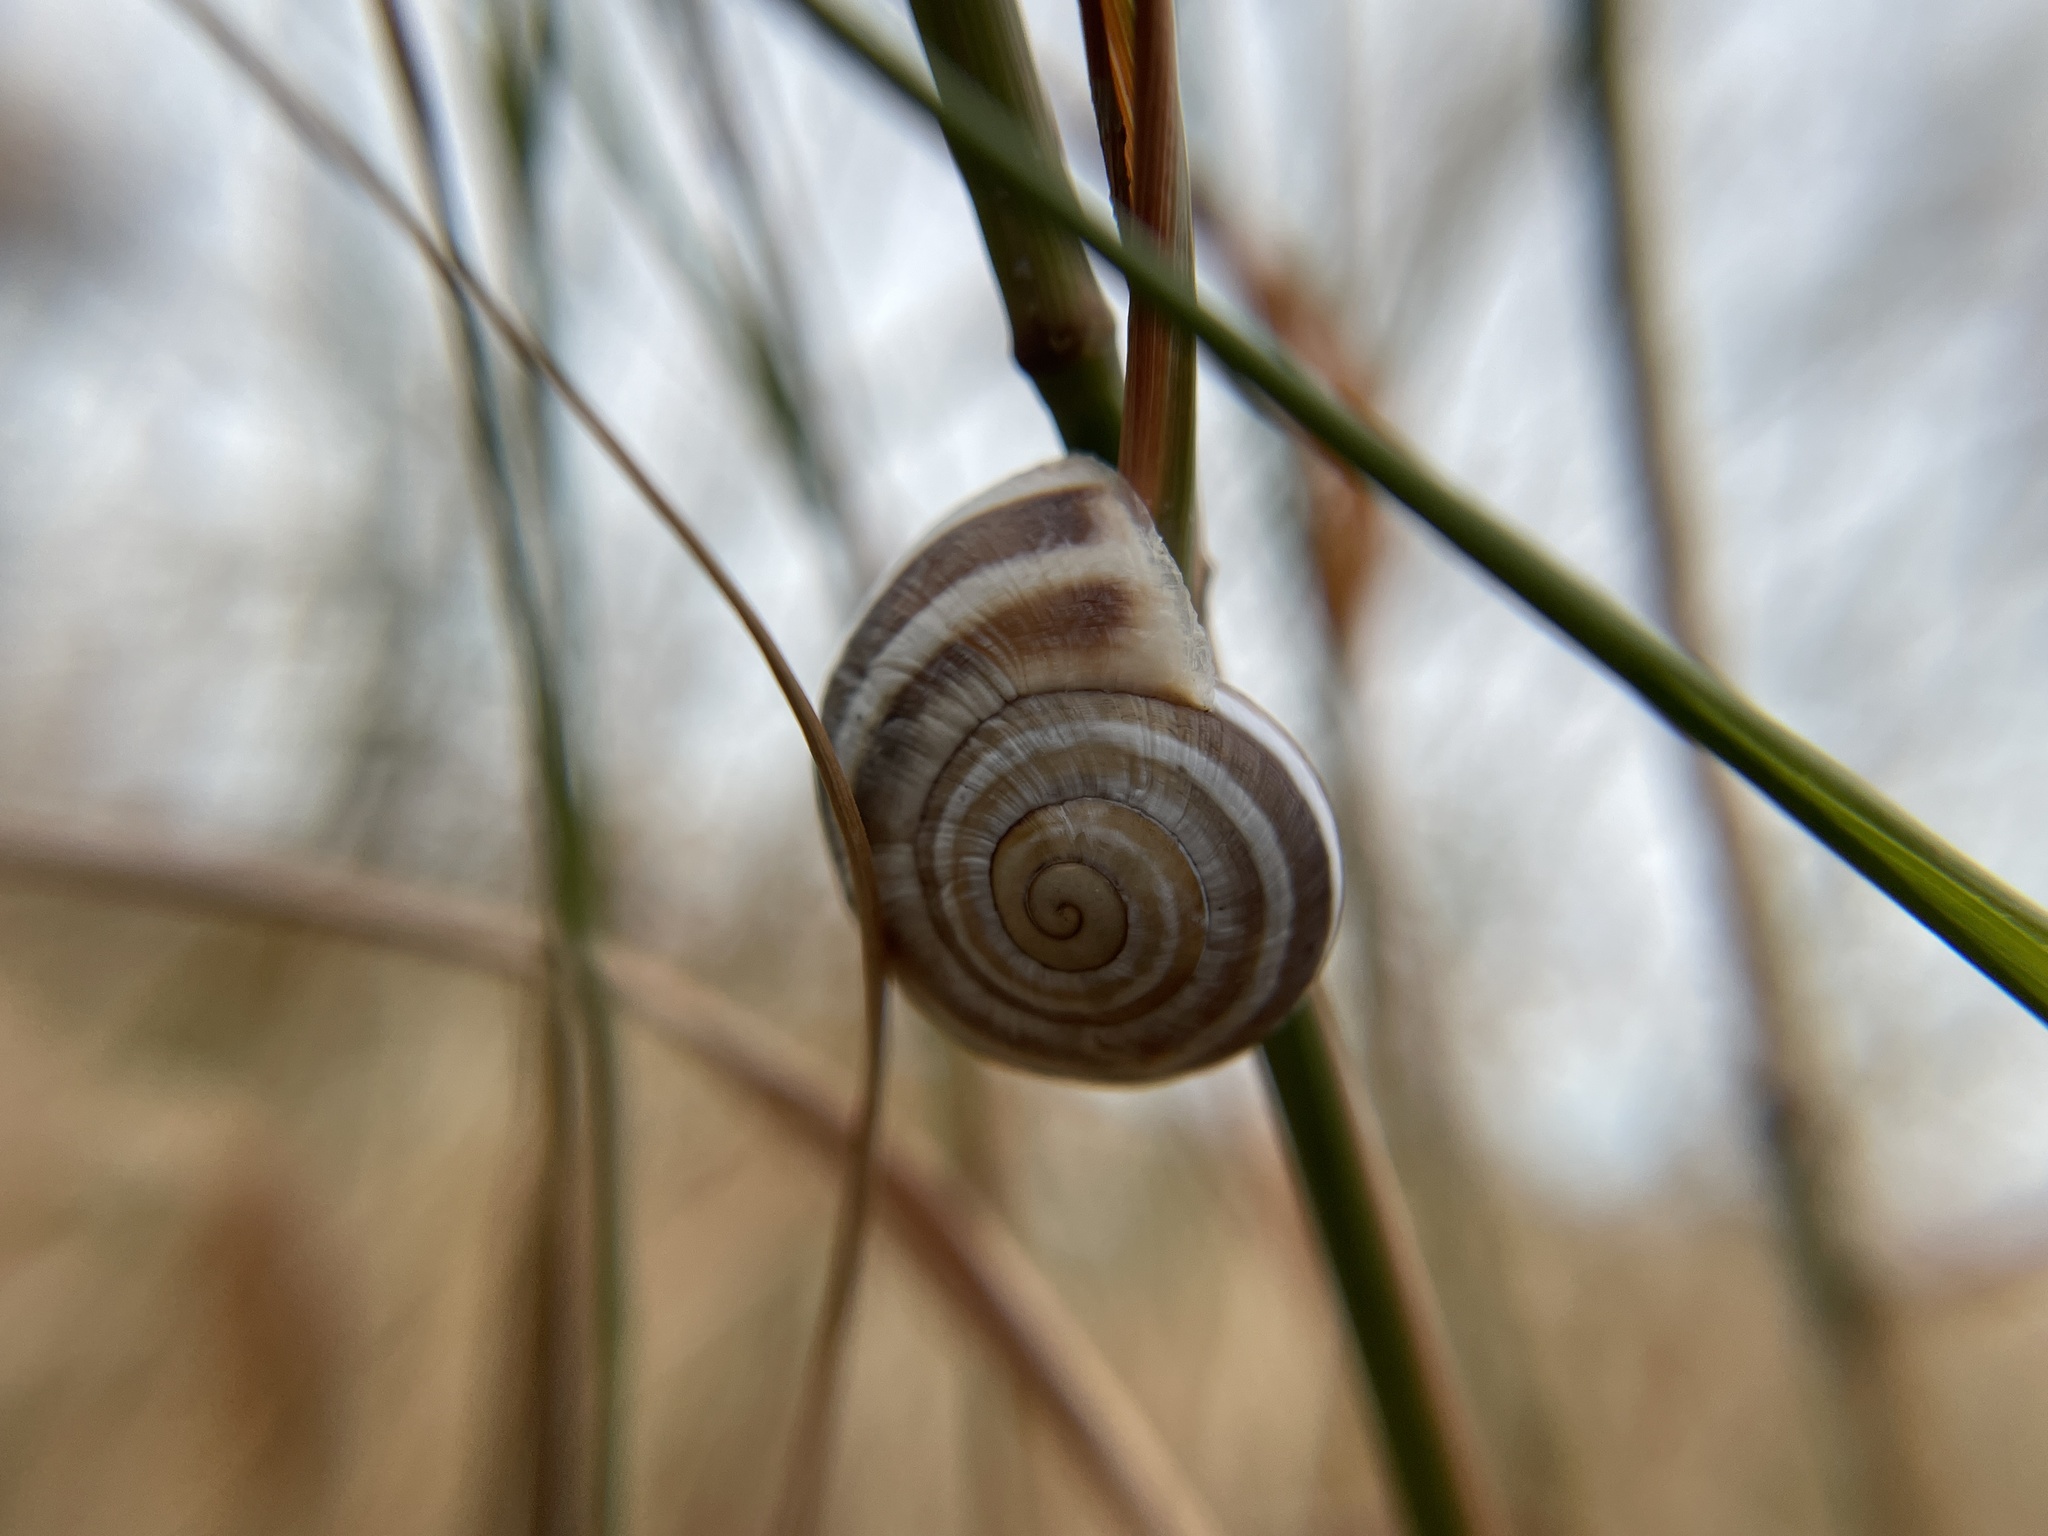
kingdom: Animalia
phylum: Mollusca
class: Gastropoda
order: Stylommatophora
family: Helicidae
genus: Otala
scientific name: Otala lactea
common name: Milk snail
